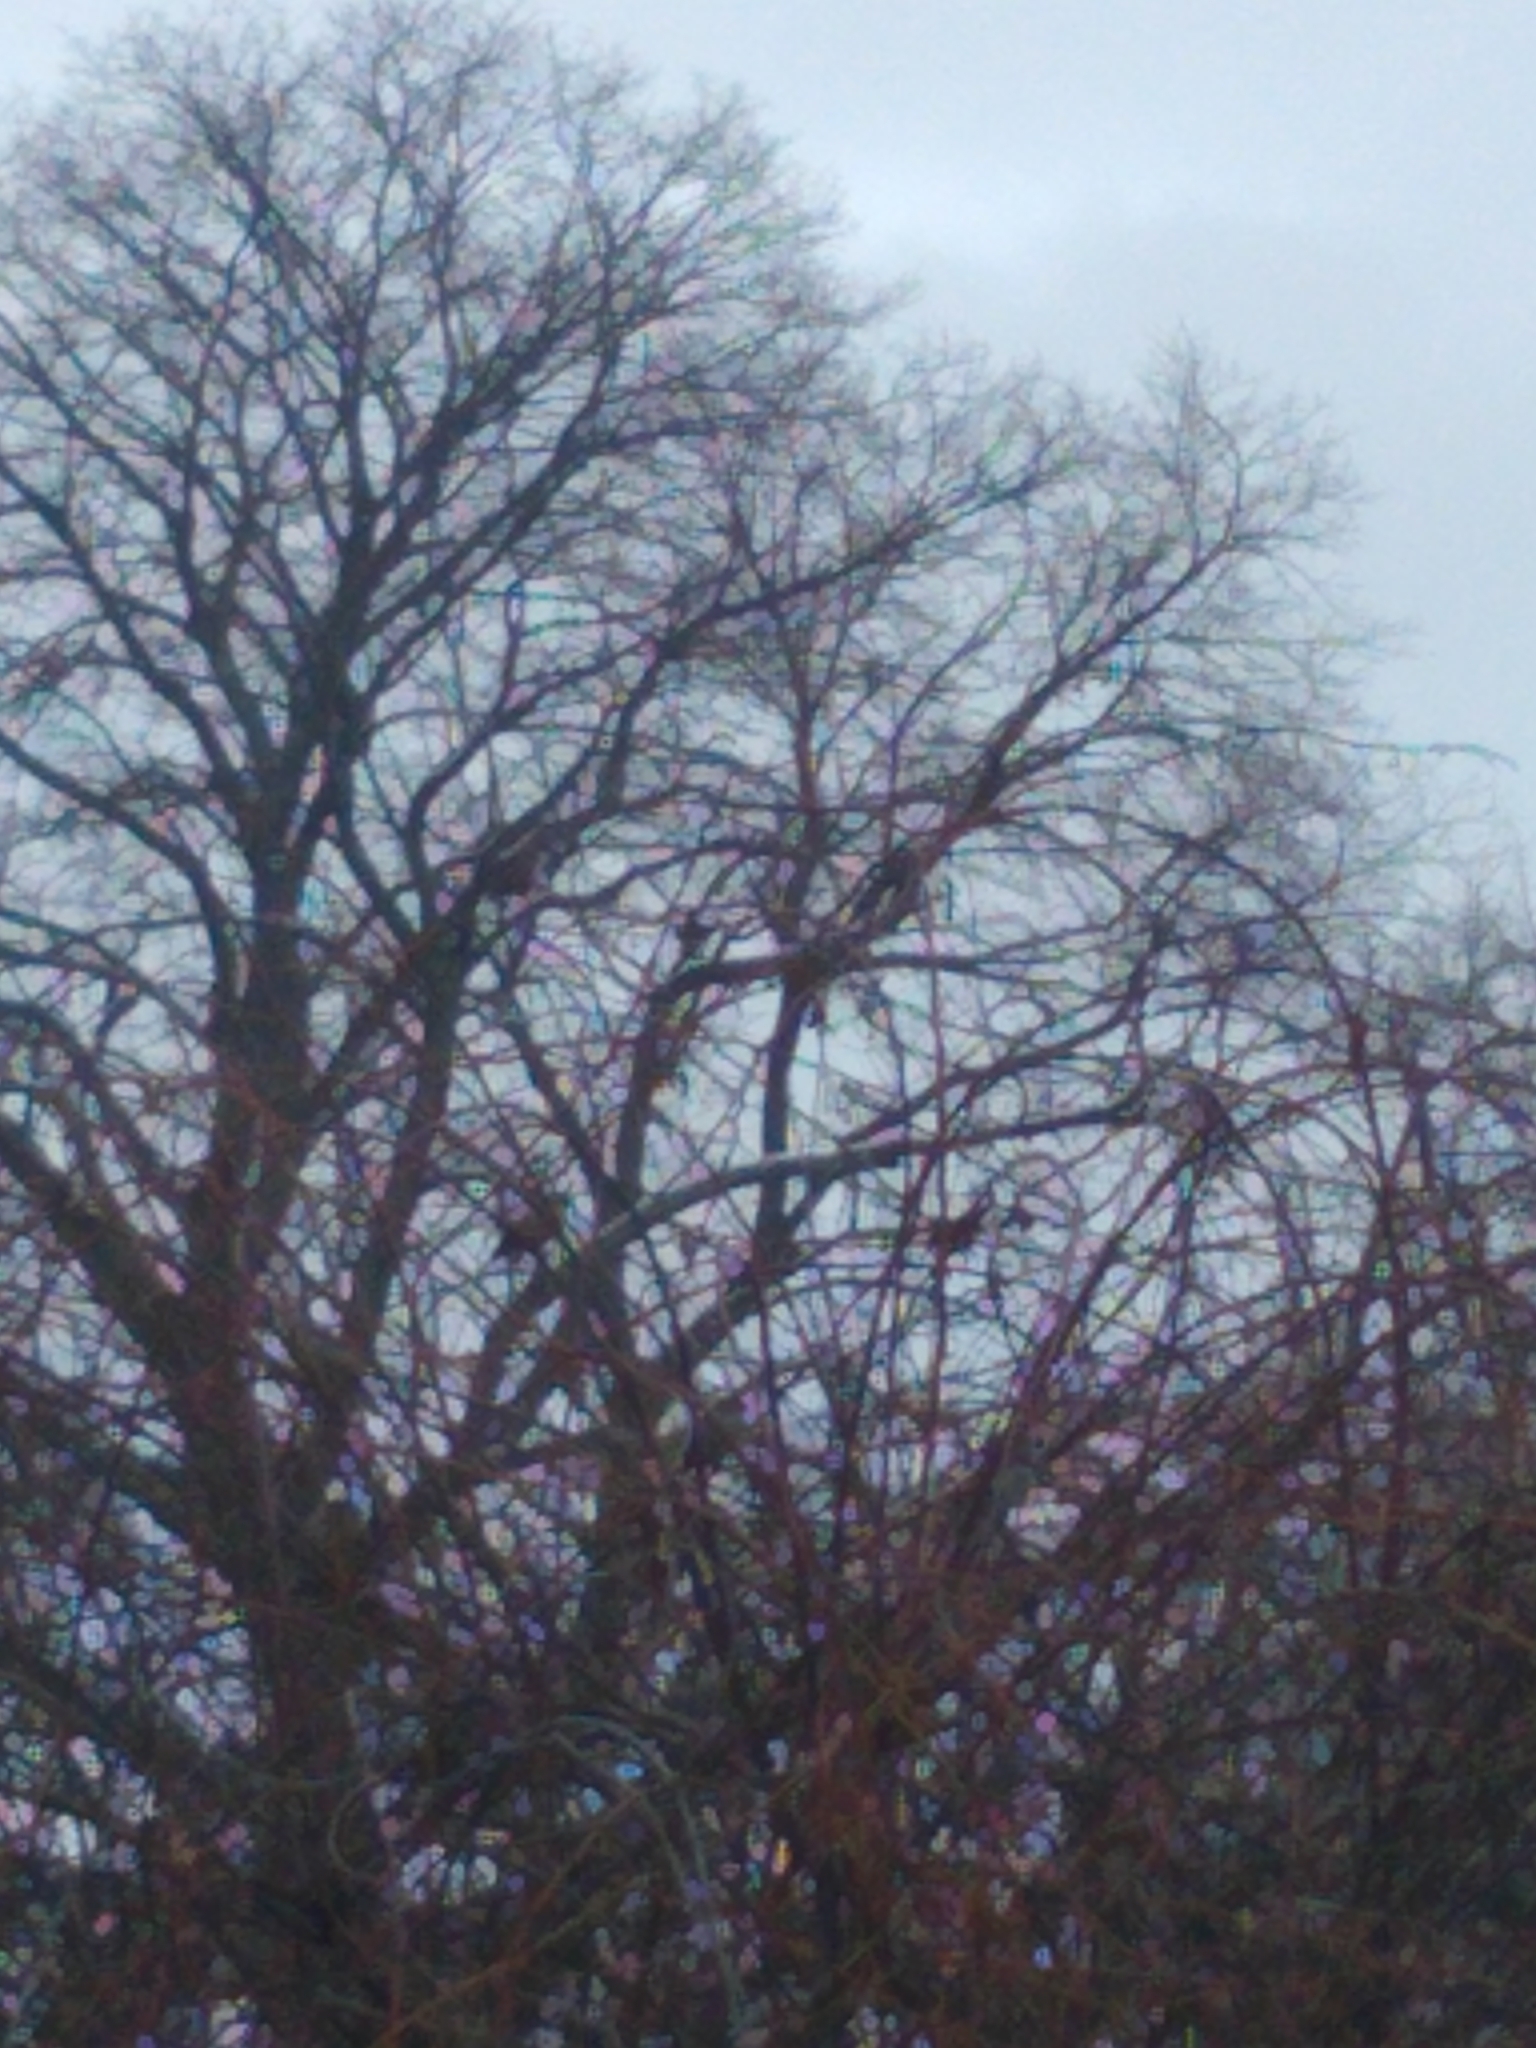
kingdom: Animalia
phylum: Chordata
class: Aves
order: Passeriformes
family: Passeridae
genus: Passer
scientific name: Passer domesticus
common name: House sparrow
